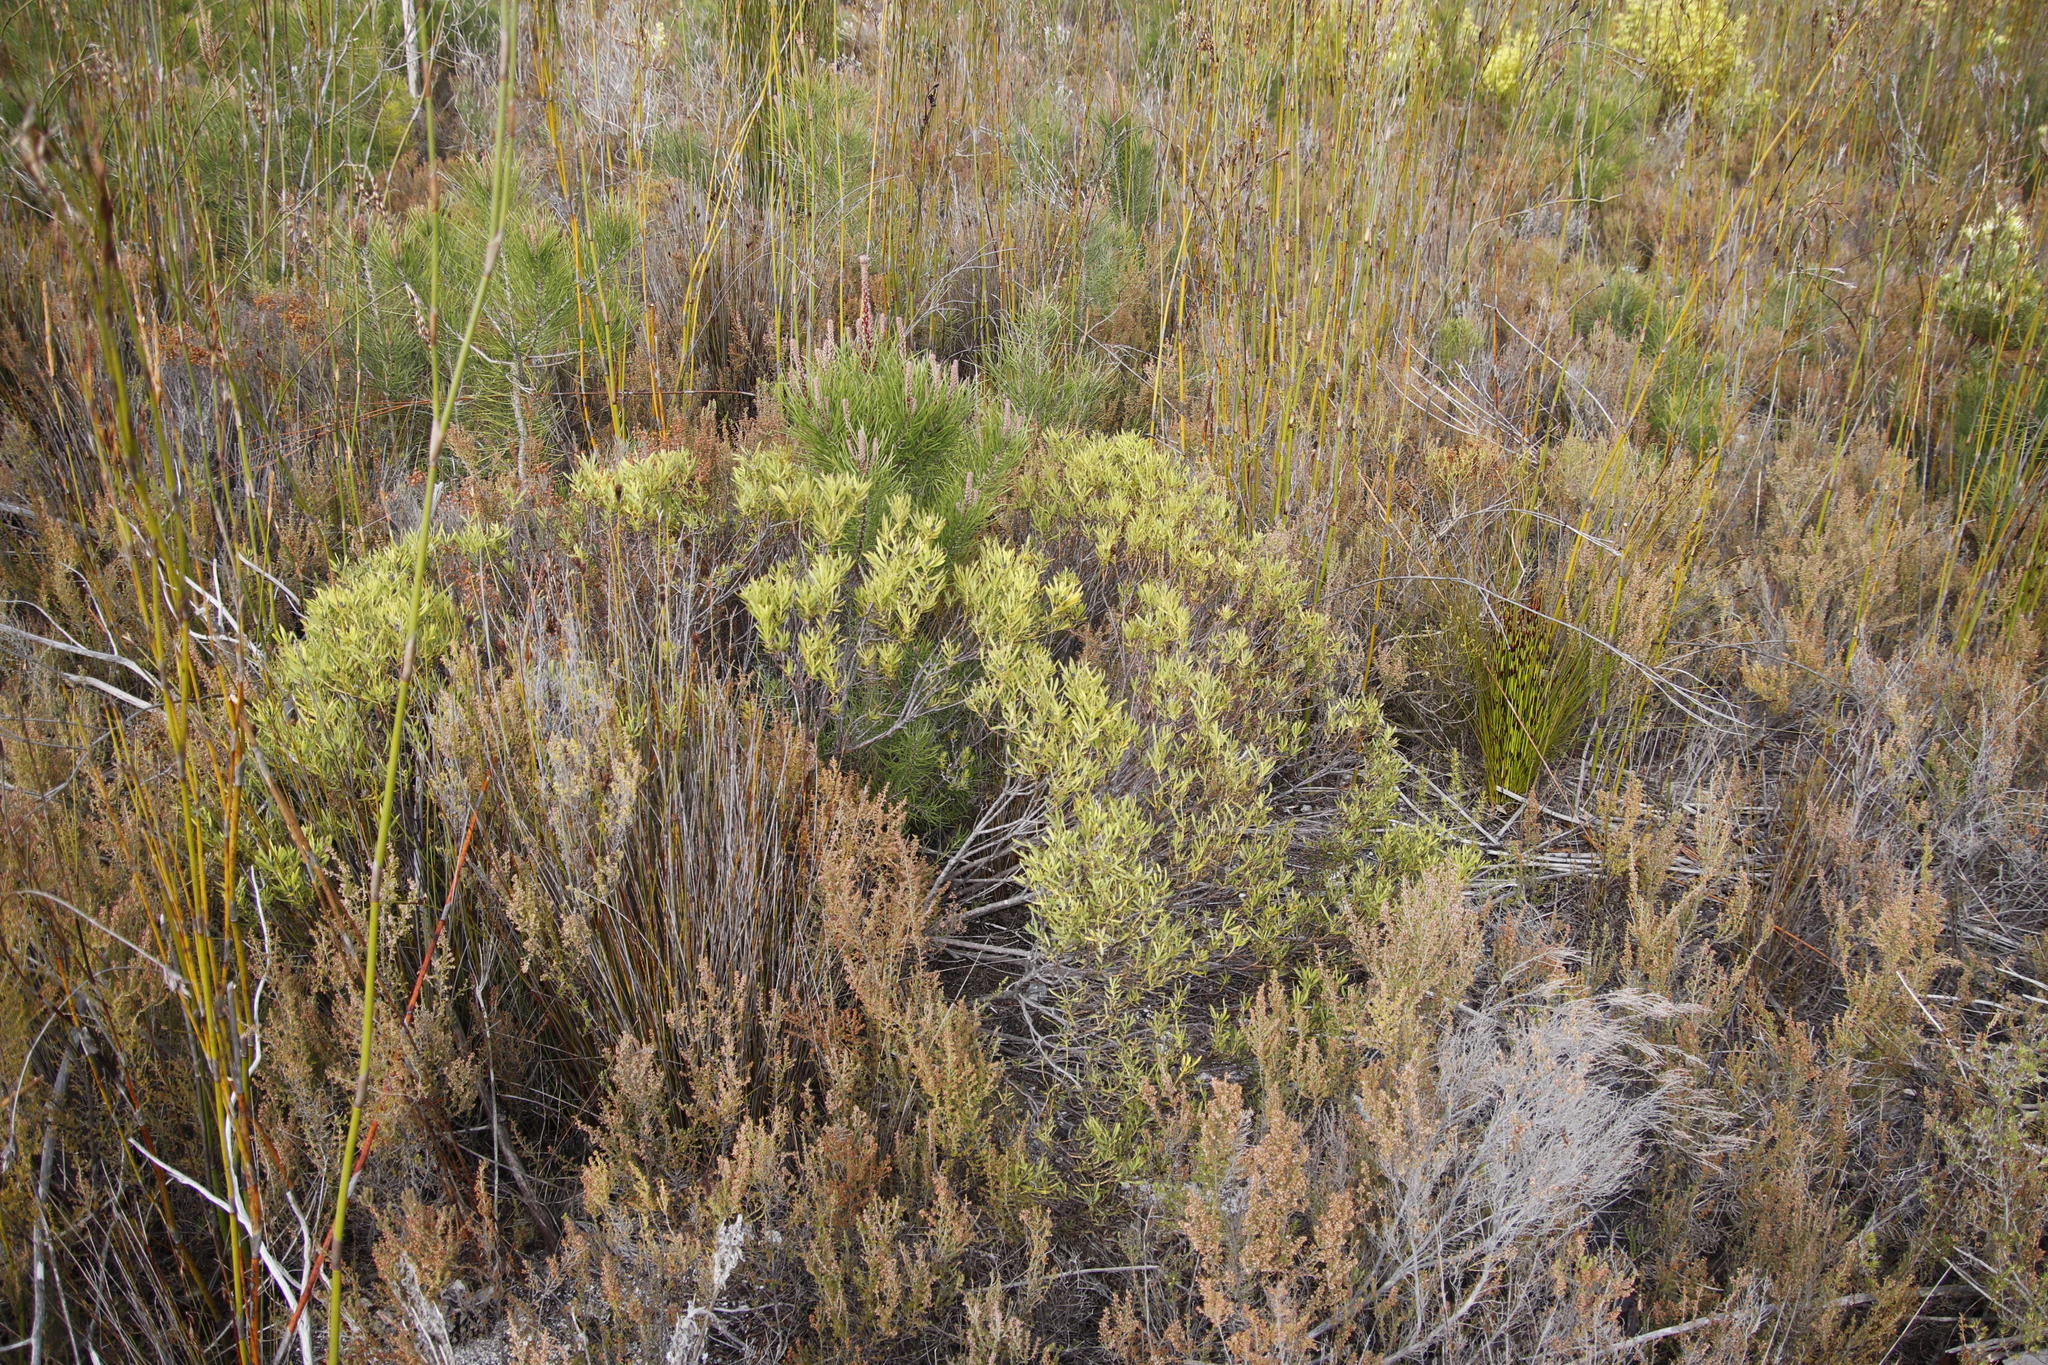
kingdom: Plantae
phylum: Tracheophyta
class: Magnoliopsida
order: Proteales
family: Proteaceae
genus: Leucadendron
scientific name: Leucadendron salignum
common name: Common sunshine conebush
